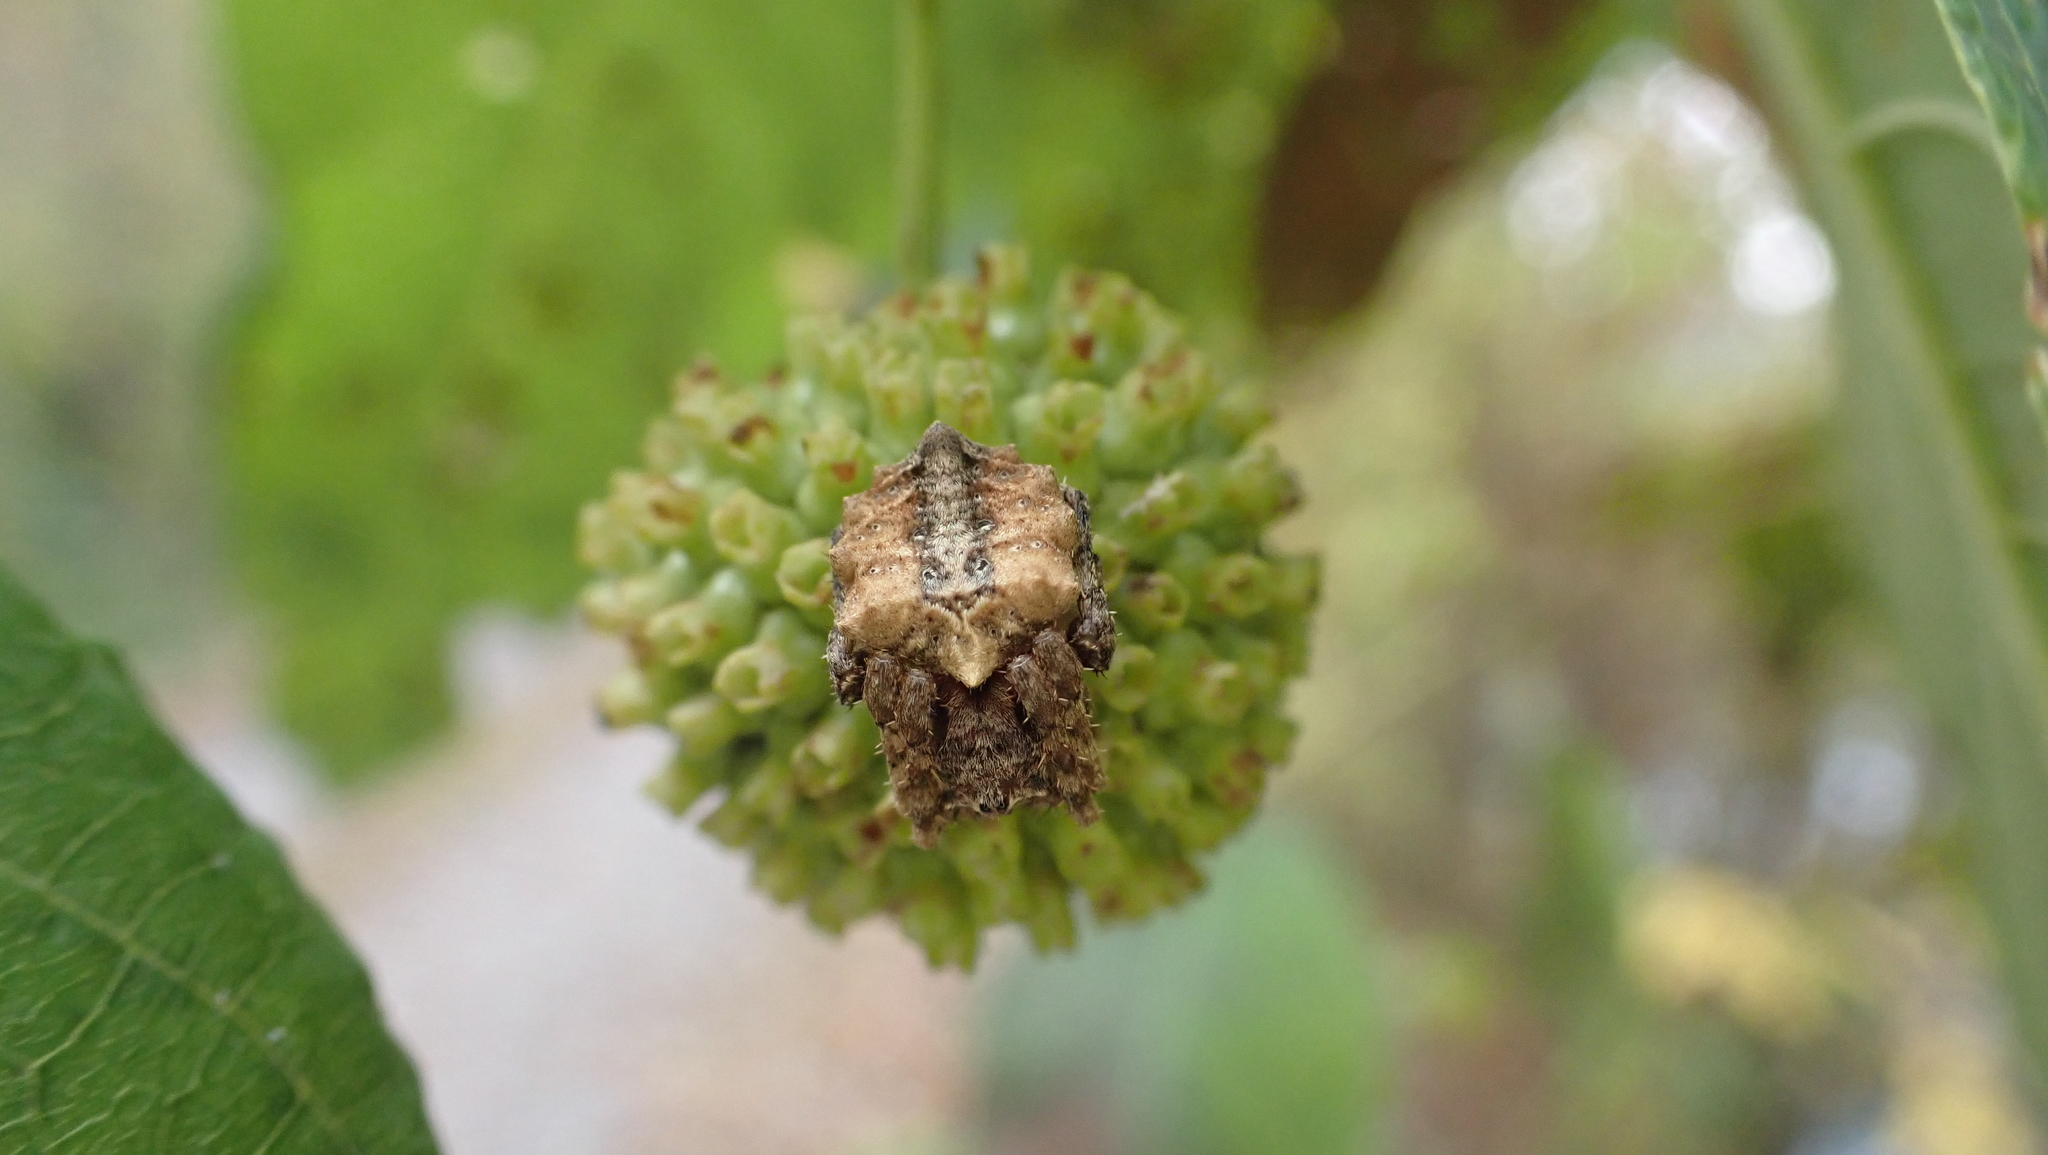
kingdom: Animalia
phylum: Arthropoda
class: Arachnida
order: Araneae
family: Araneidae
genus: Acanthepeira
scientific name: Acanthepeira stellata
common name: Starbellied orbweaver
